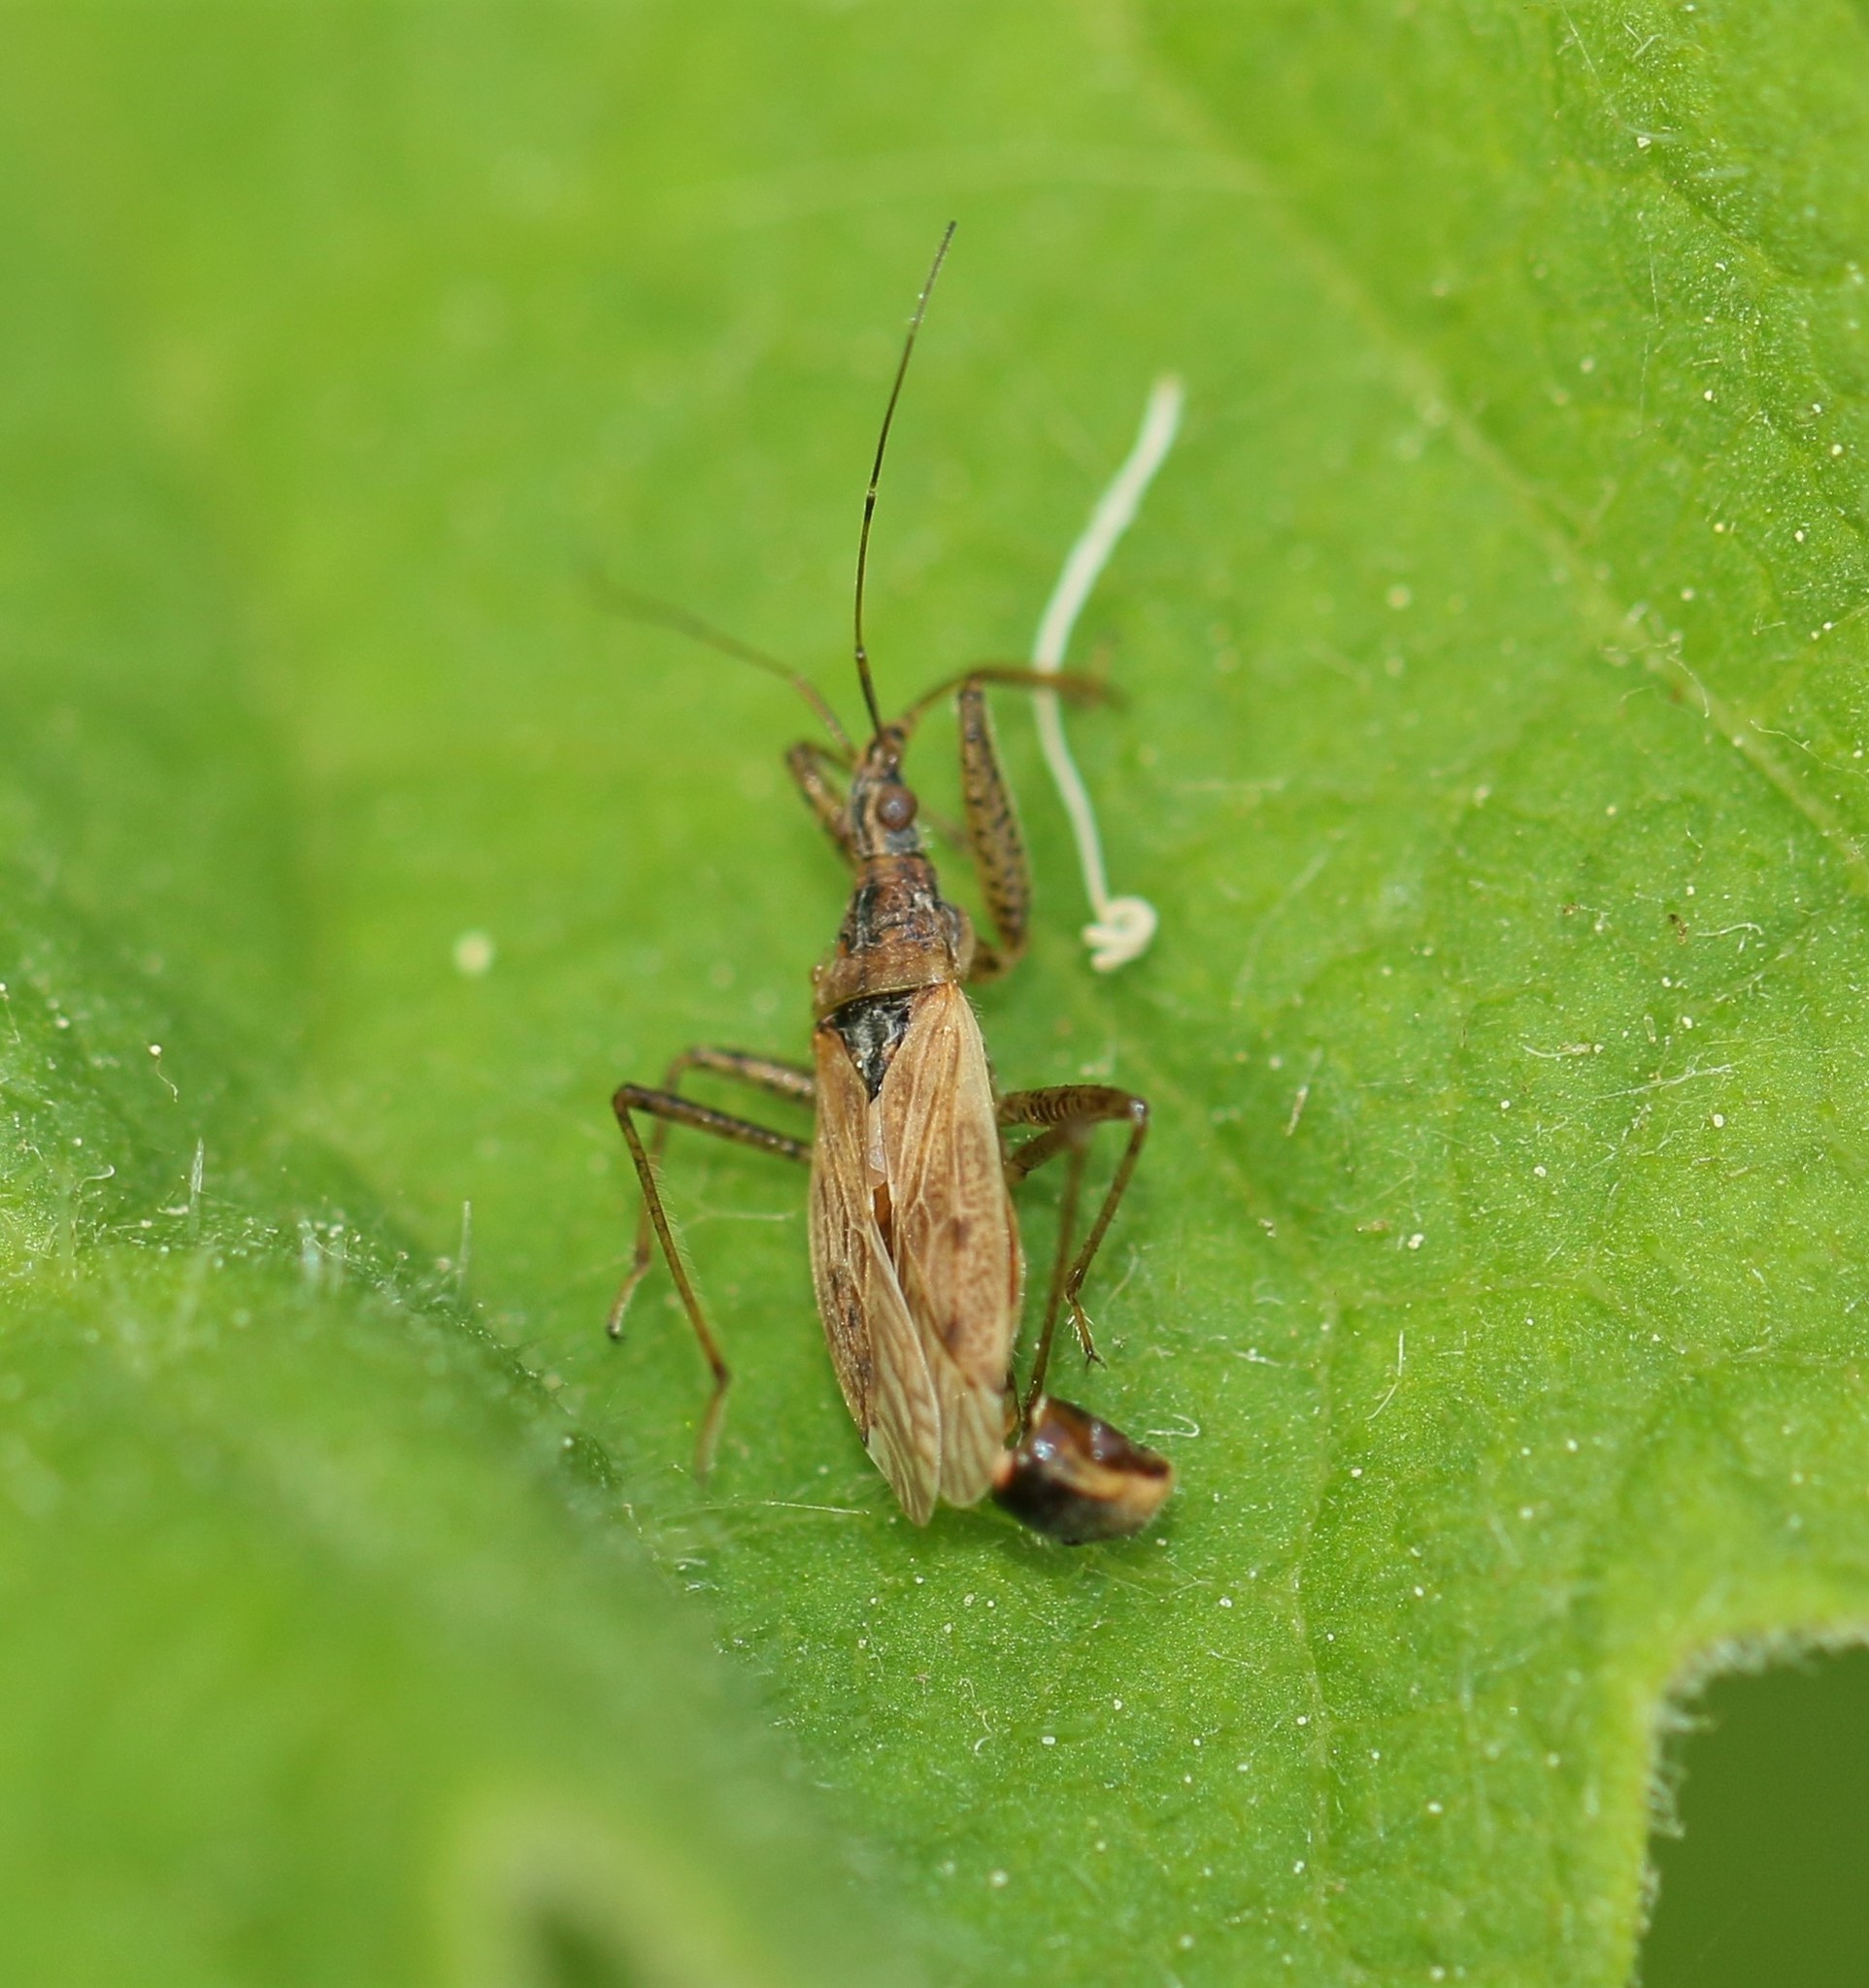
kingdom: Animalia
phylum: Arthropoda
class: Insecta
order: Hemiptera
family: Nabidae
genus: Nabis
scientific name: Nabis roseipennis
